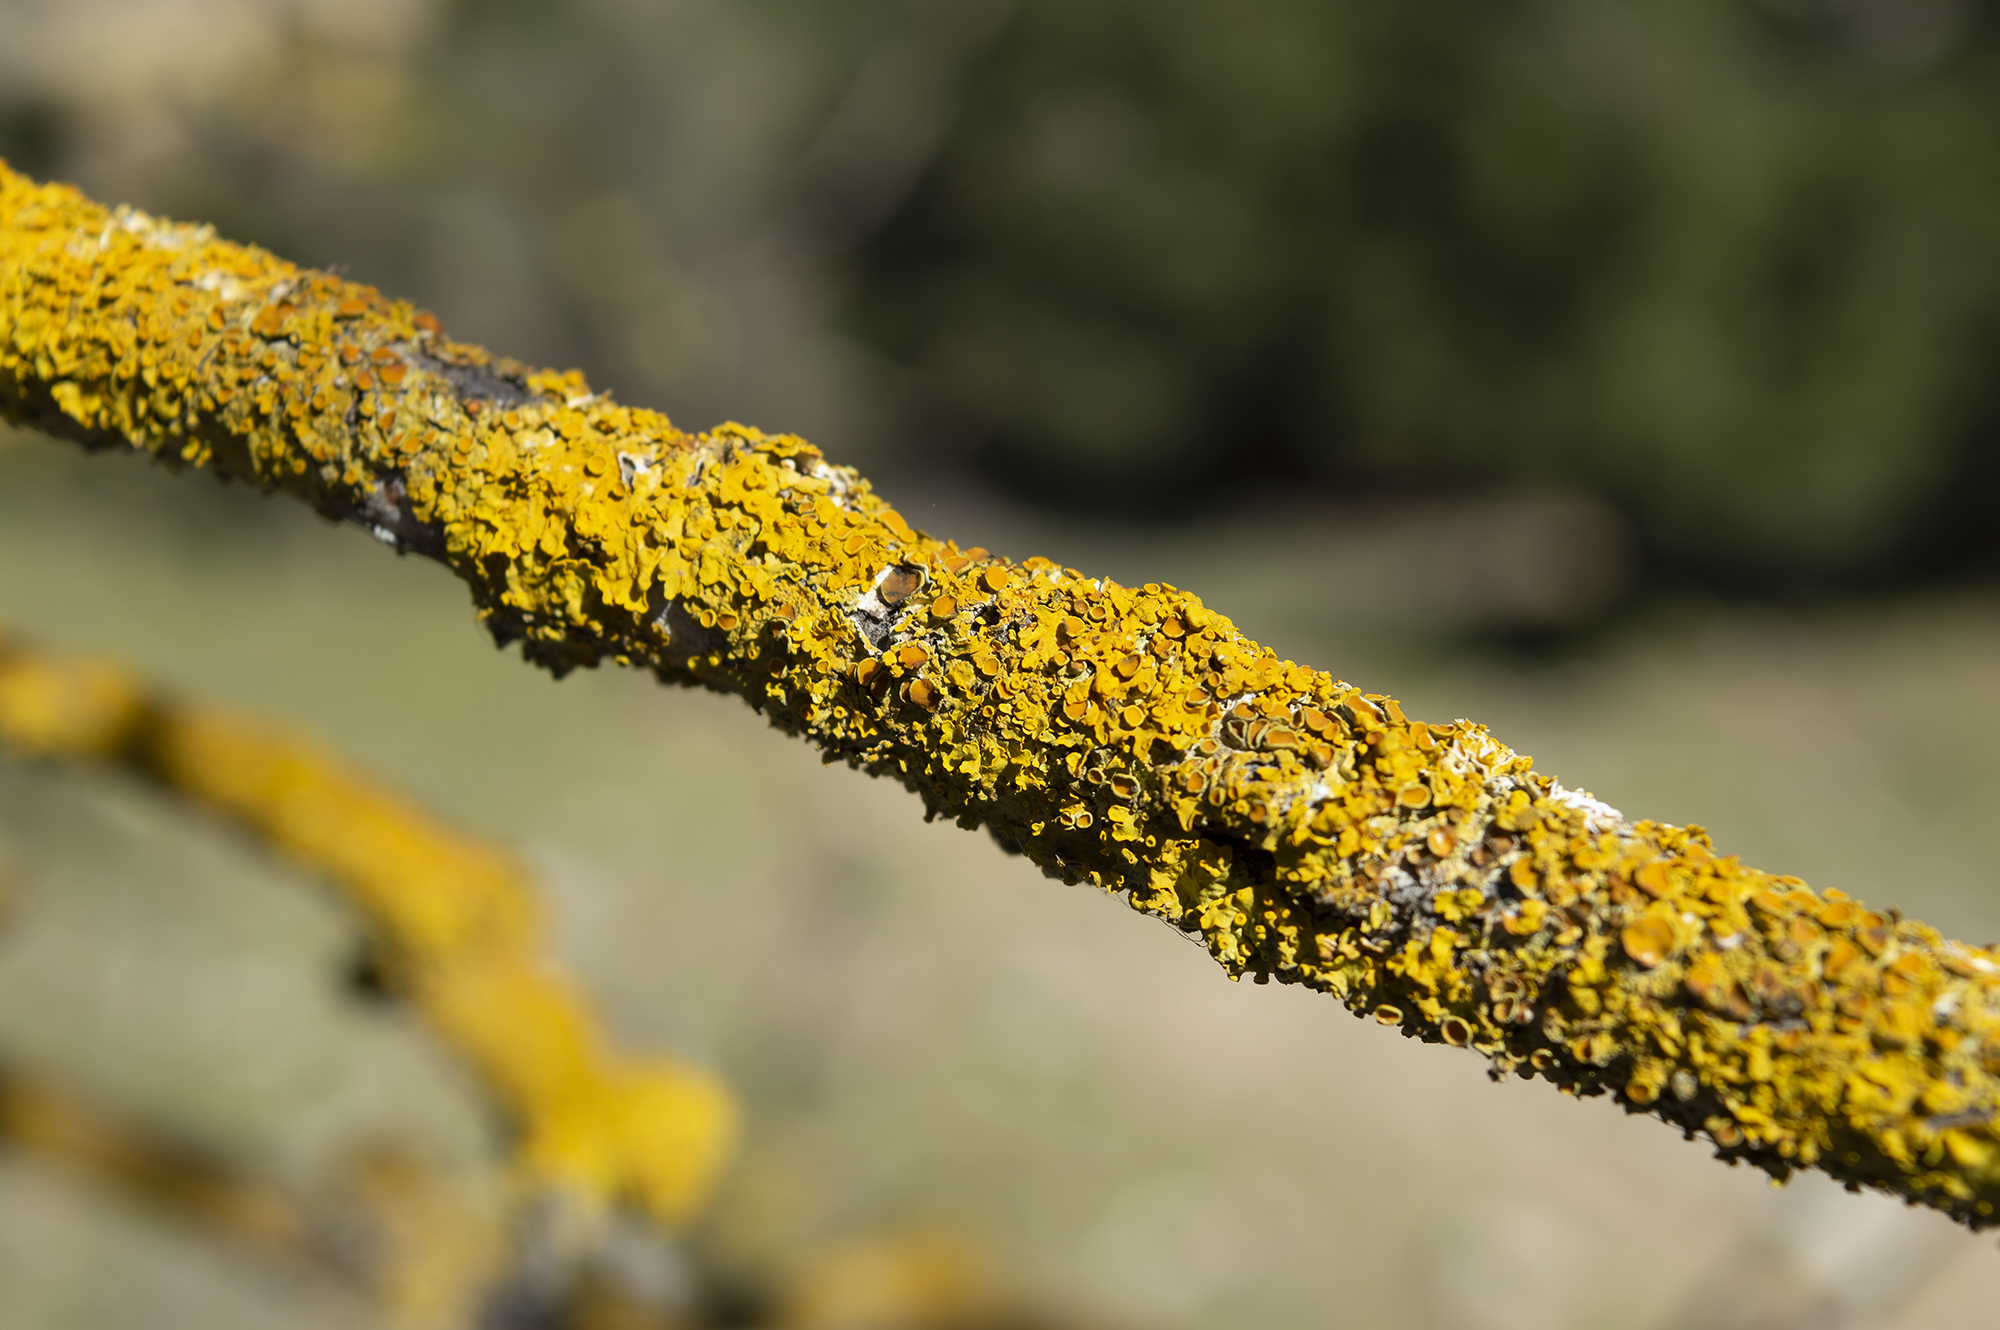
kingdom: Fungi
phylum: Ascomycota
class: Lecanoromycetes
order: Teloschistales
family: Teloschistaceae
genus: Xanthoria
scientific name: Xanthoria parietina
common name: Common orange lichen
